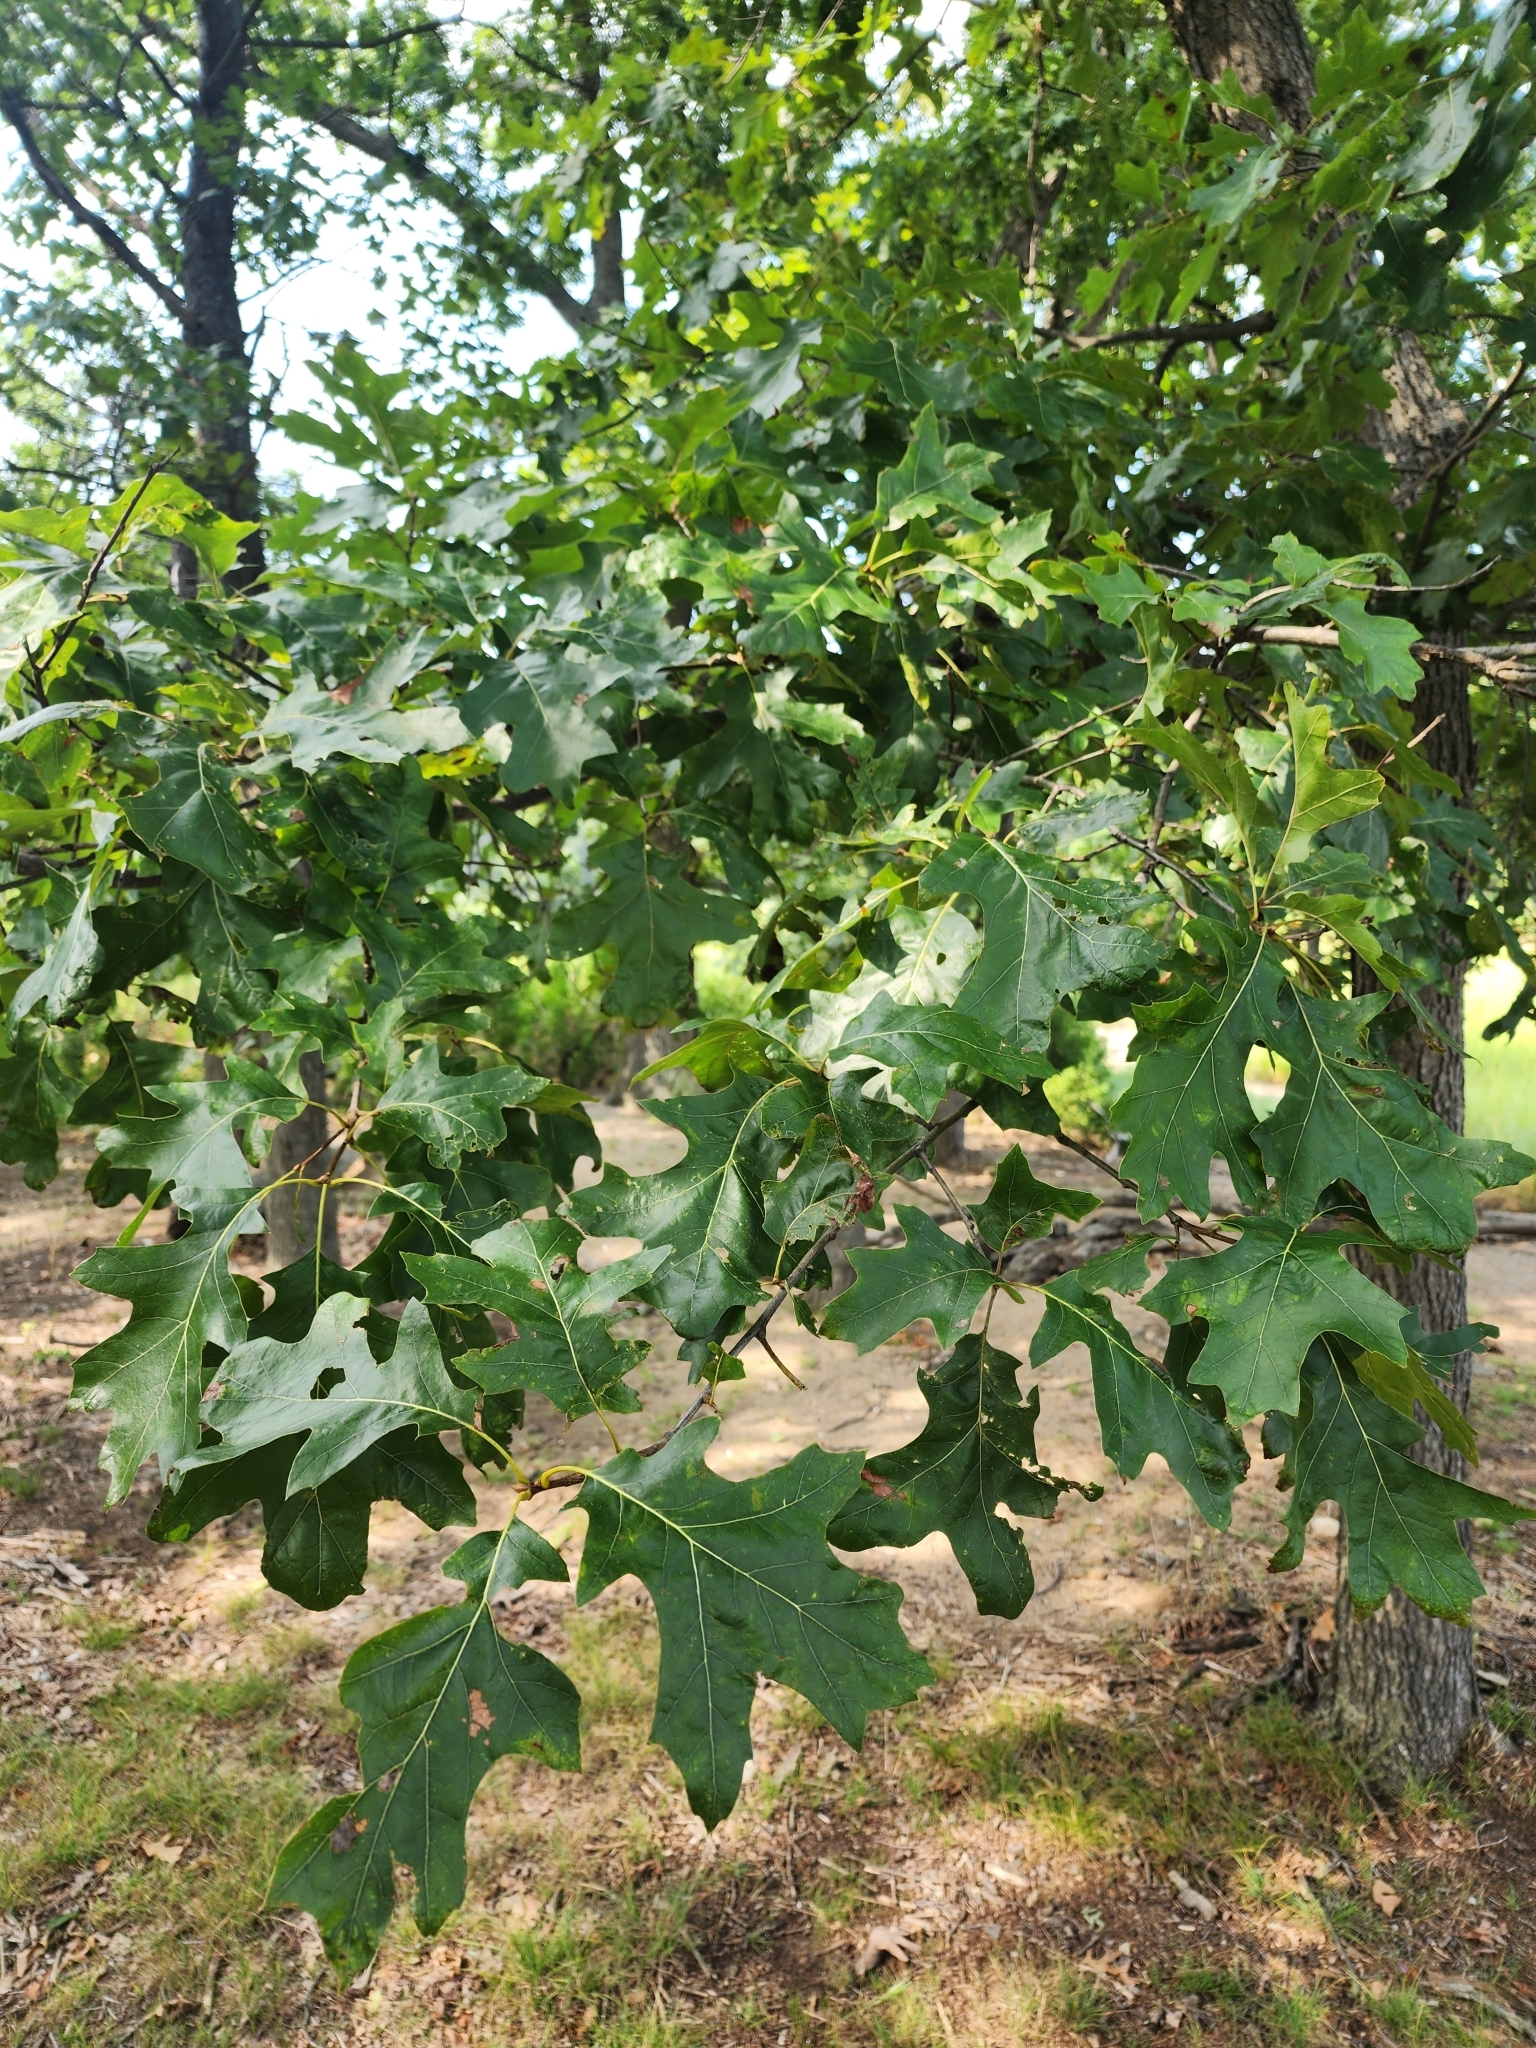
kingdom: Plantae
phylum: Tracheophyta
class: Magnoliopsida
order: Fagales
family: Fagaceae
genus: Quercus
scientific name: Quercus rubra
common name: Red oak
